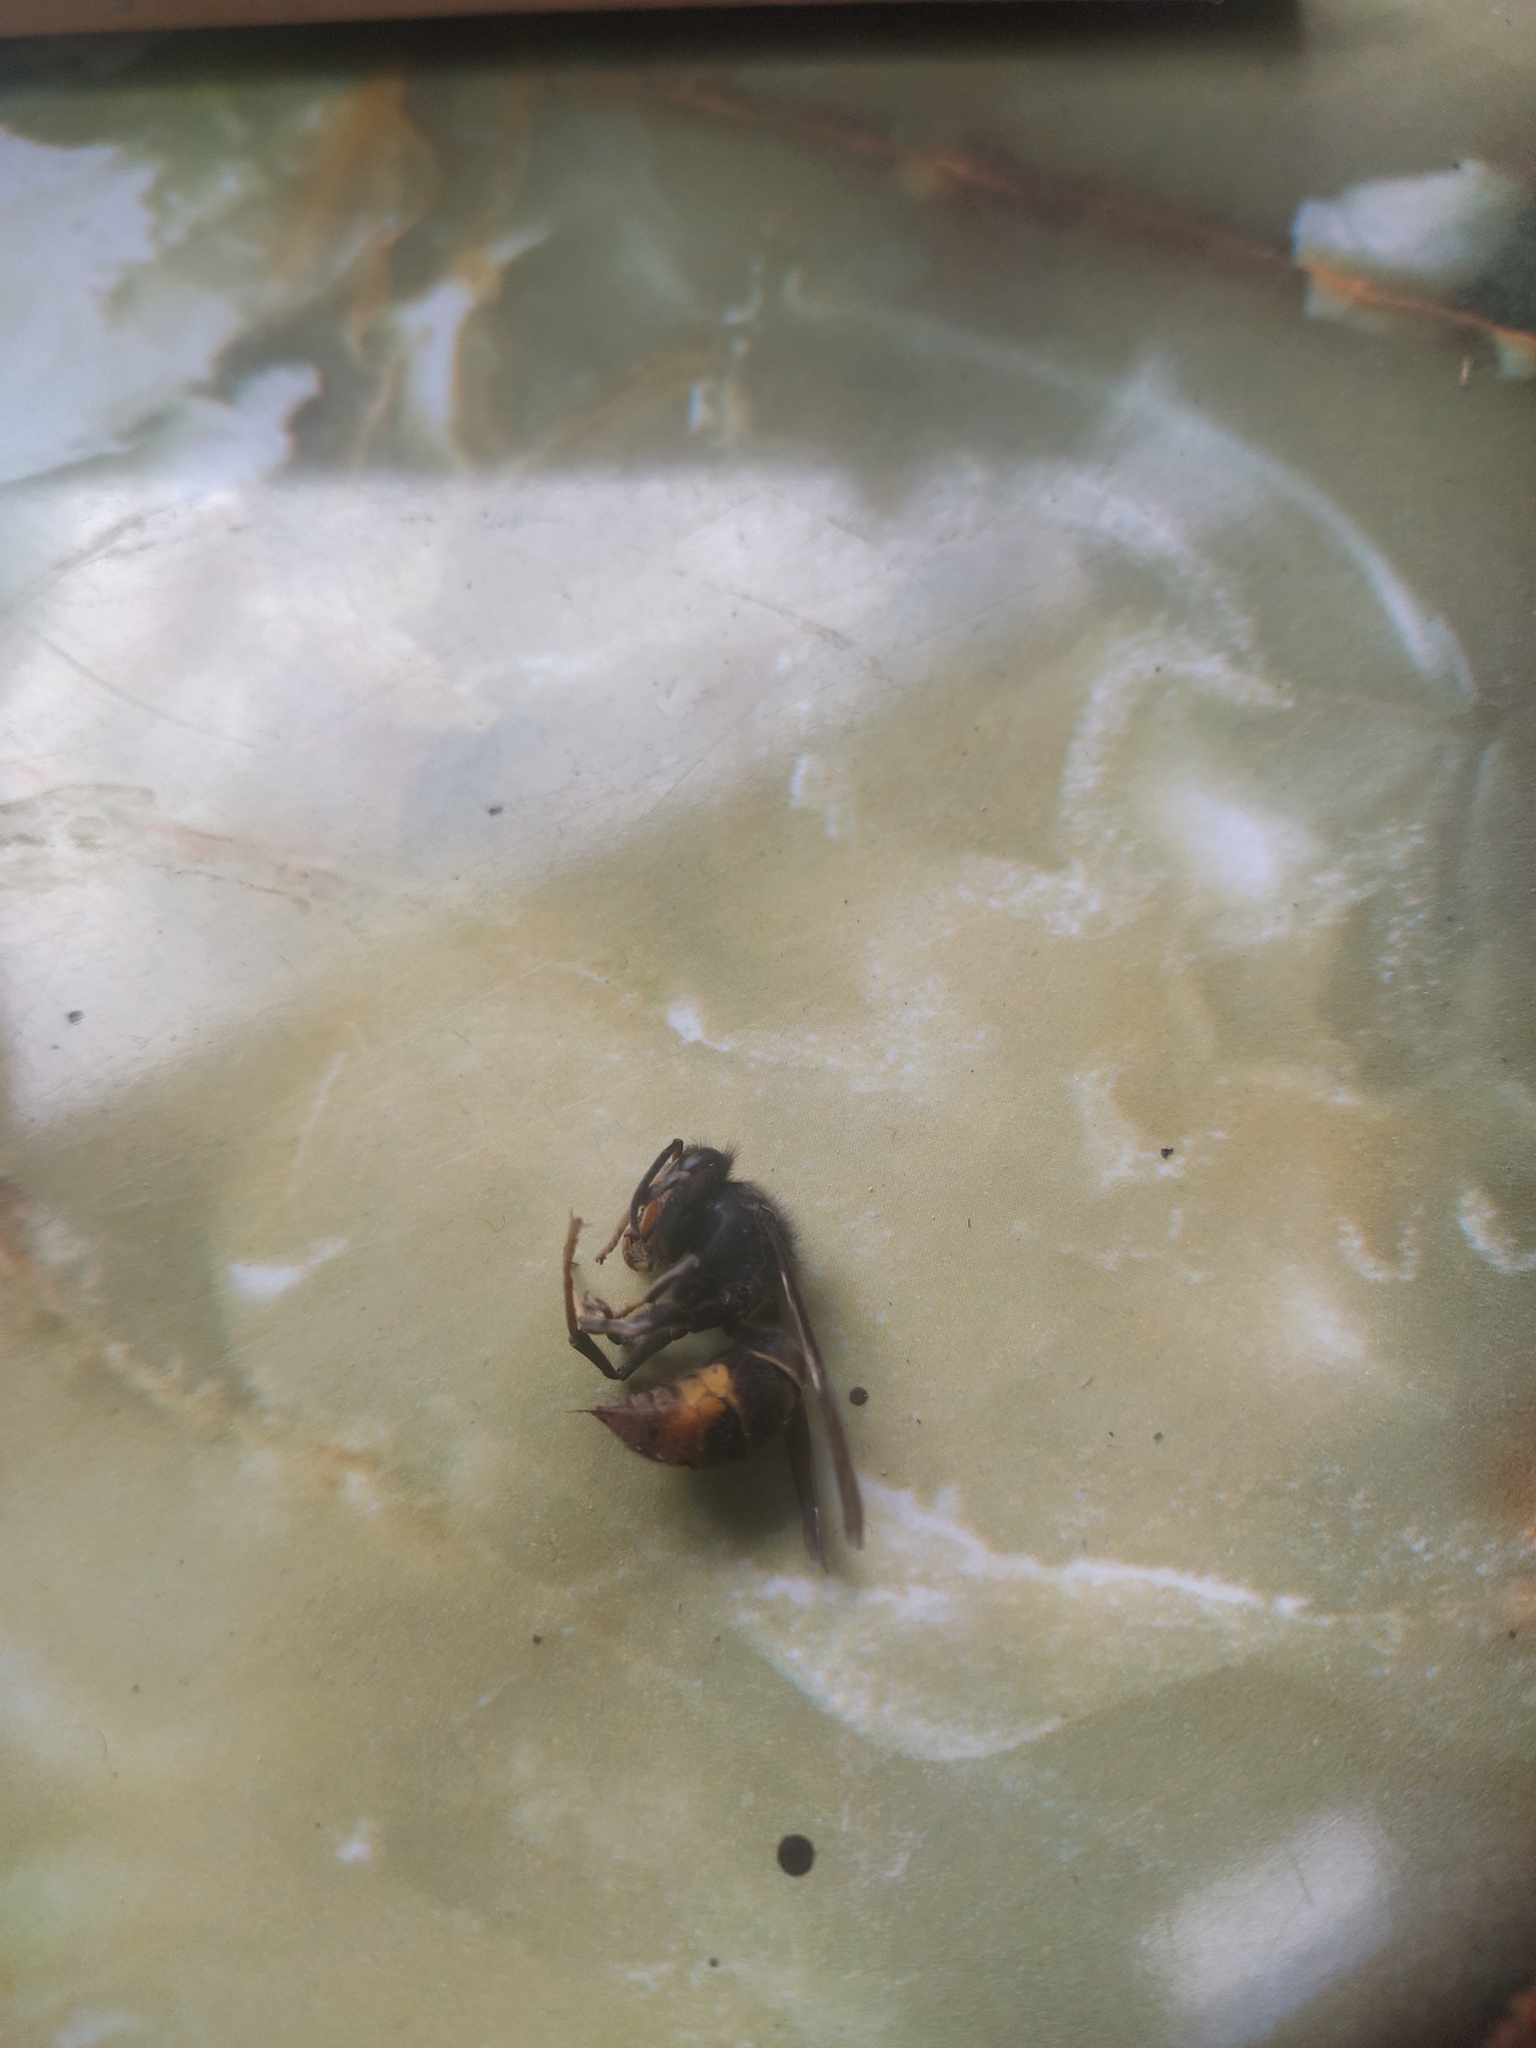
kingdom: Animalia
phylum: Arthropoda
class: Insecta
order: Hymenoptera
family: Vespidae
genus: Vespa
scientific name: Vespa velutina
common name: Asian hornet
